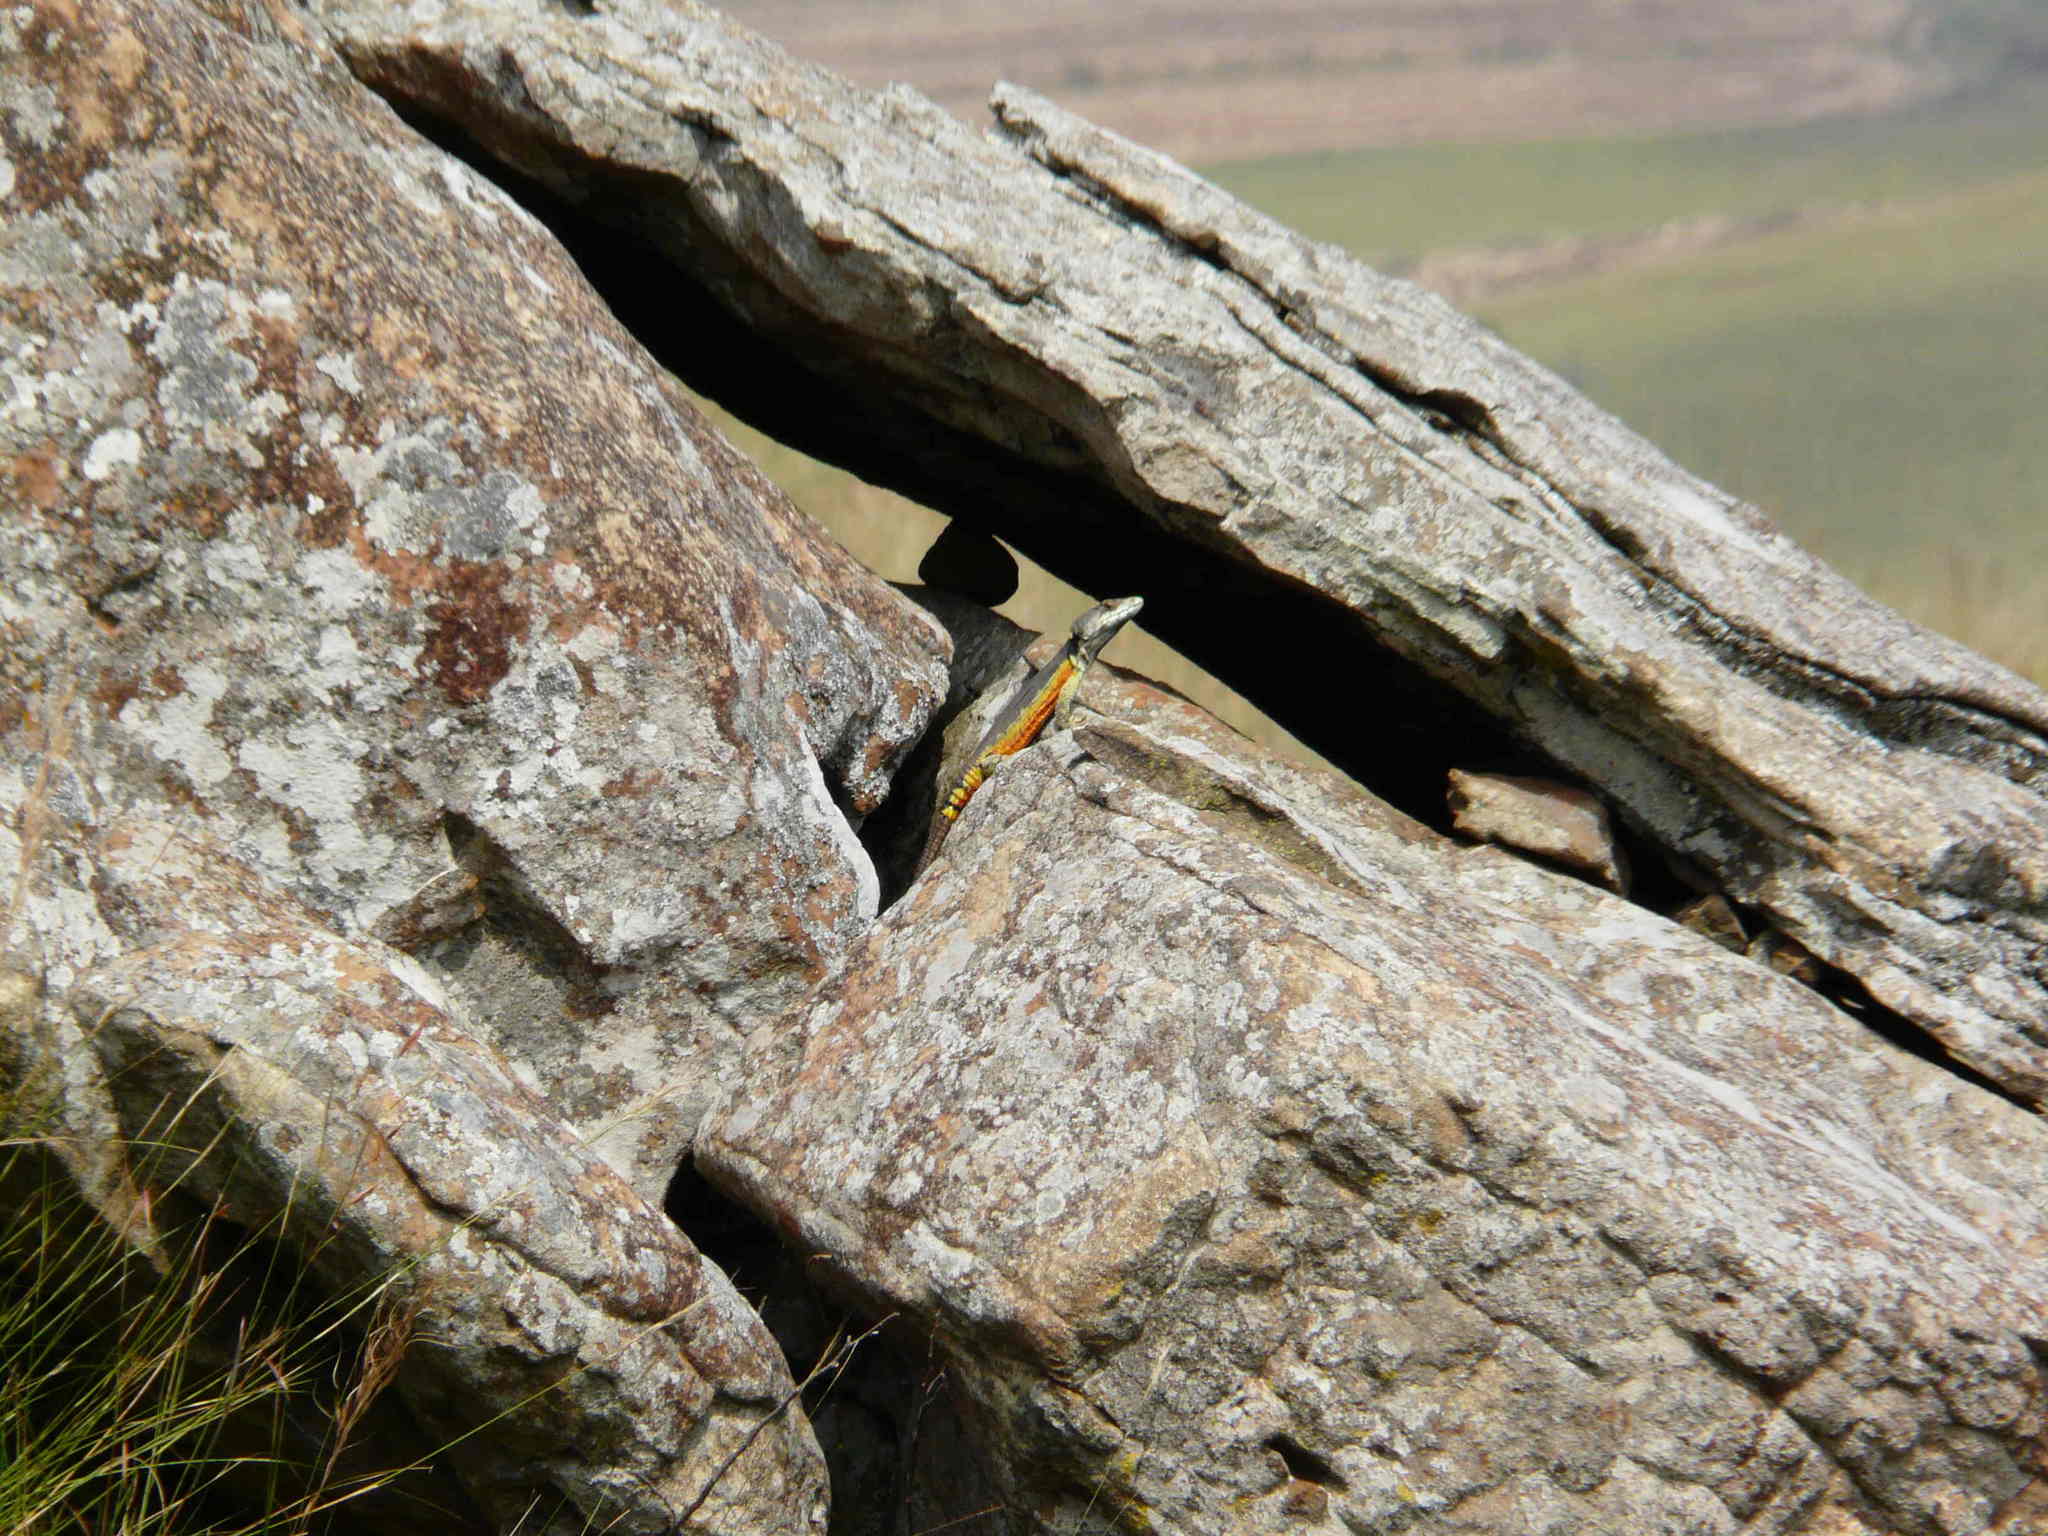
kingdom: Animalia
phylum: Chordata
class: Squamata
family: Cordylidae
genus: Pseudocordylus
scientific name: Pseudocordylus subviridis
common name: Drakensberg crag lizard
